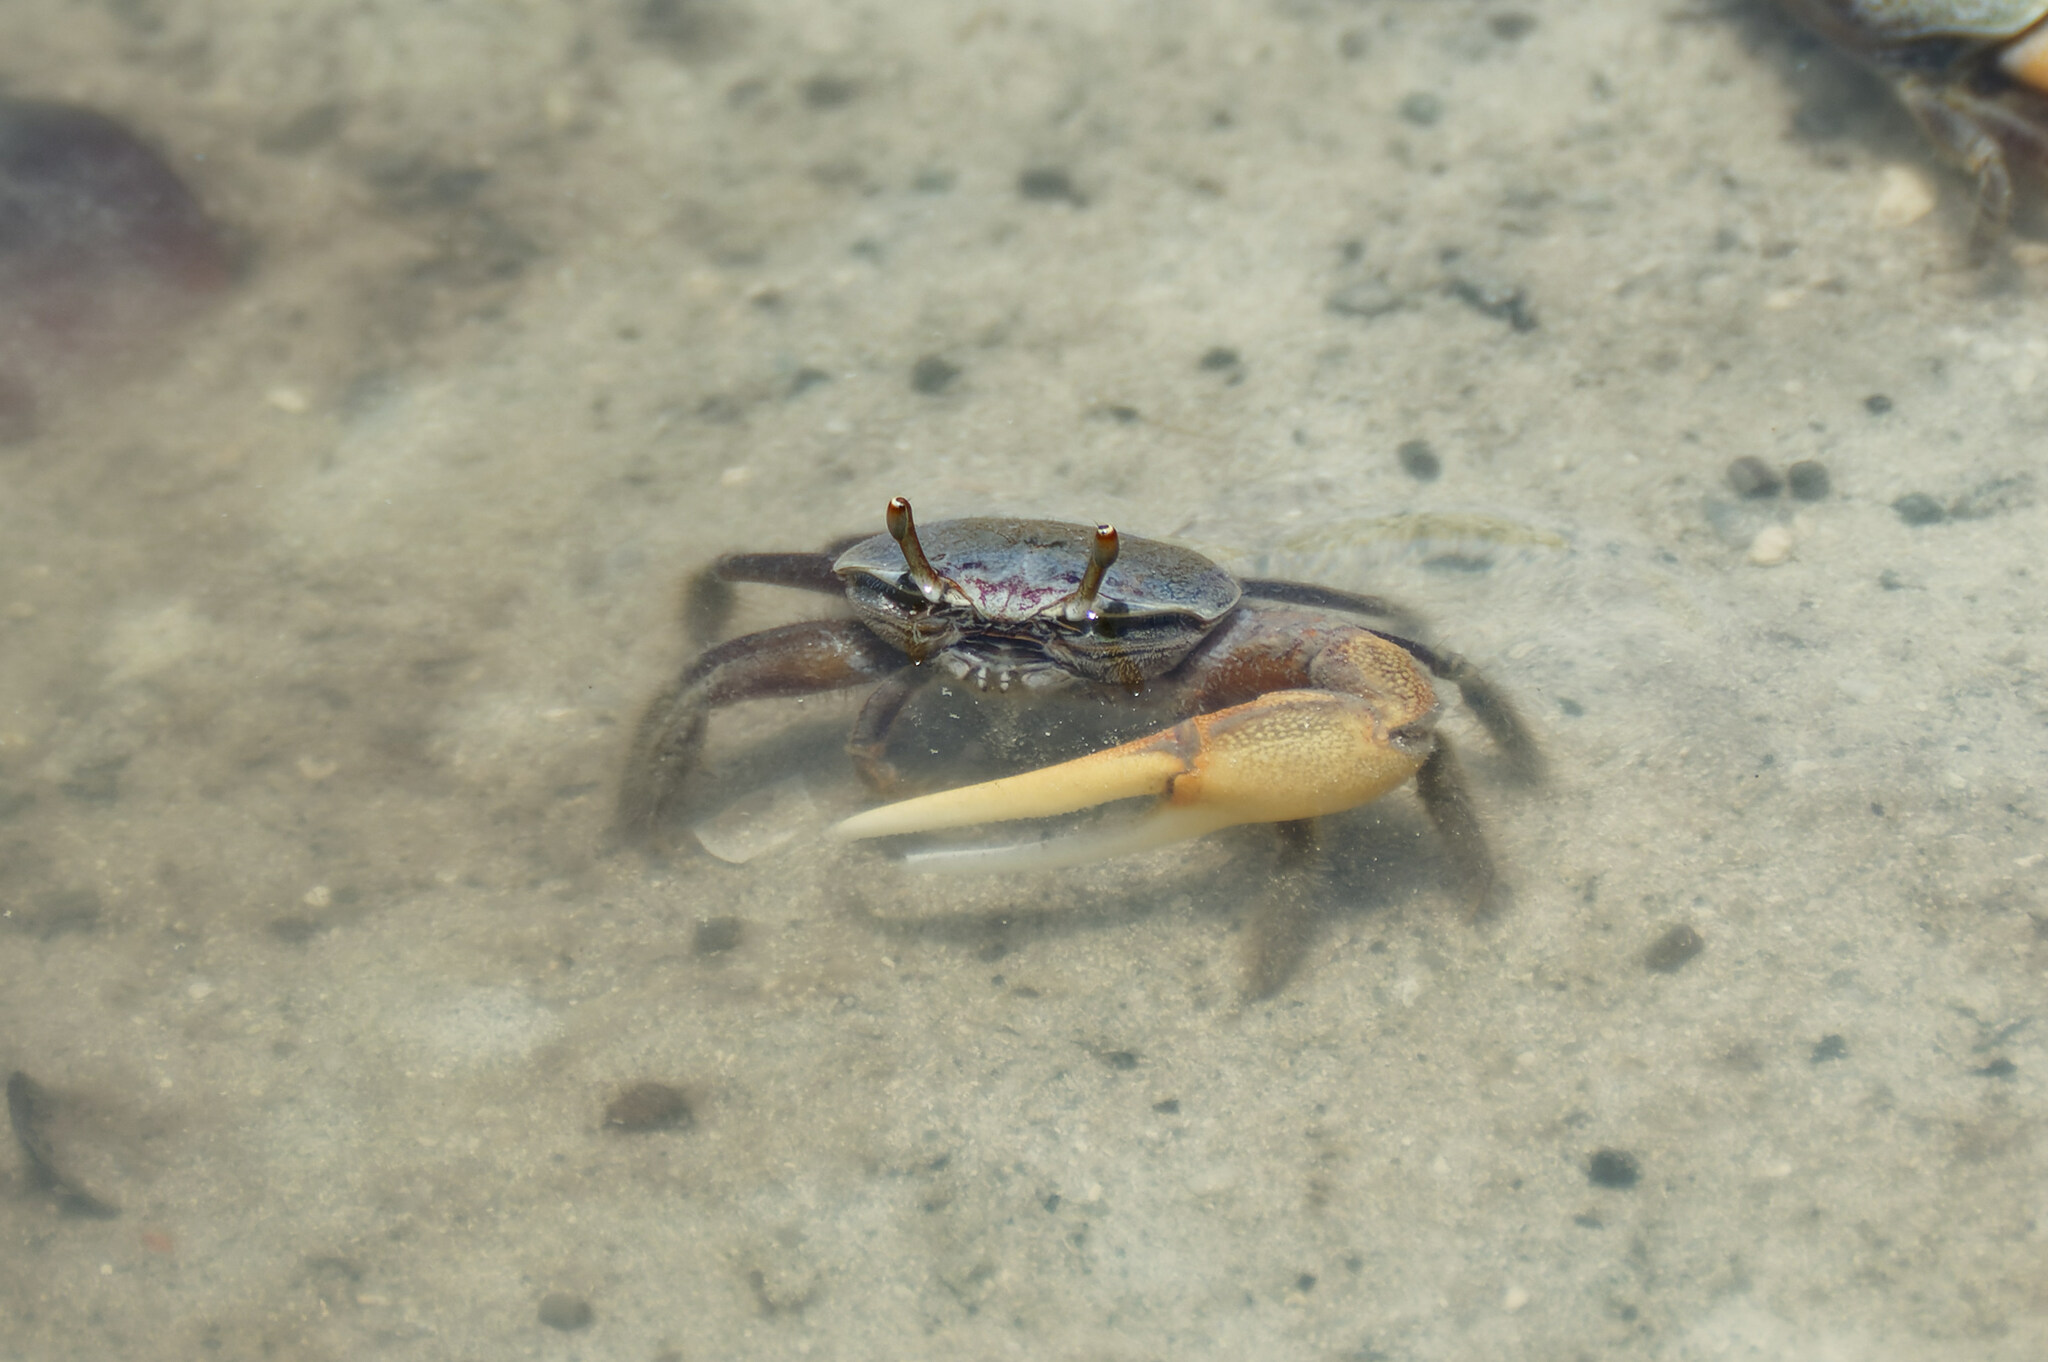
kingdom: Animalia
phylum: Arthropoda
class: Malacostraca
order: Decapoda
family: Ocypodidae
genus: Minuca
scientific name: Minuca rapax
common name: Rapacious fiddler crab
